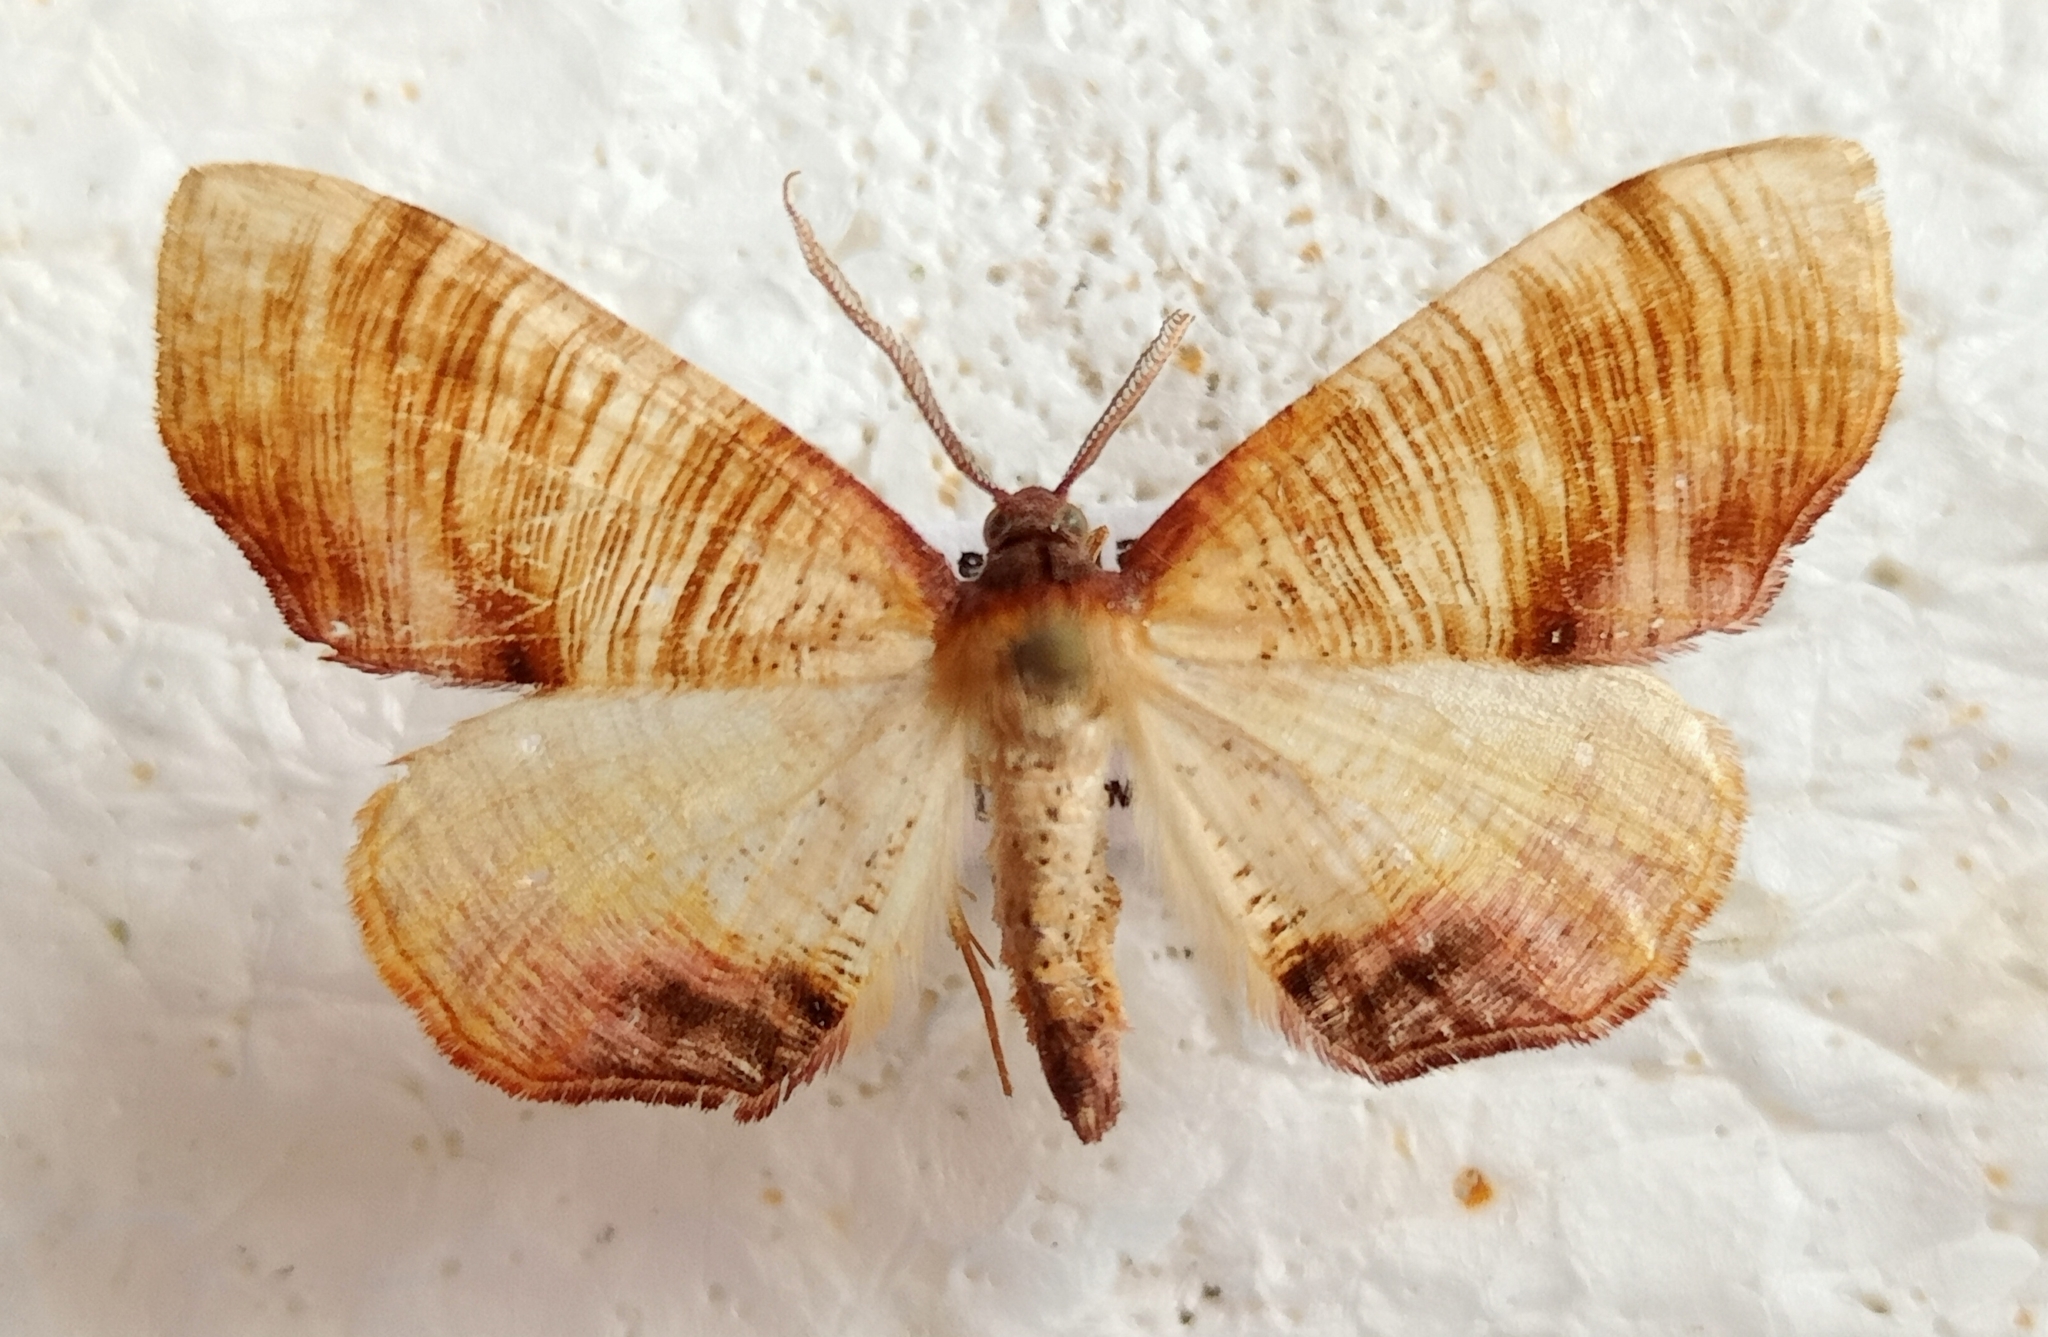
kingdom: Animalia
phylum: Arthropoda
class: Insecta
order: Lepidoptera
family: Geometridae
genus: Plagodis
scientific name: Plagodis dolabraria
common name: Scorched wing
